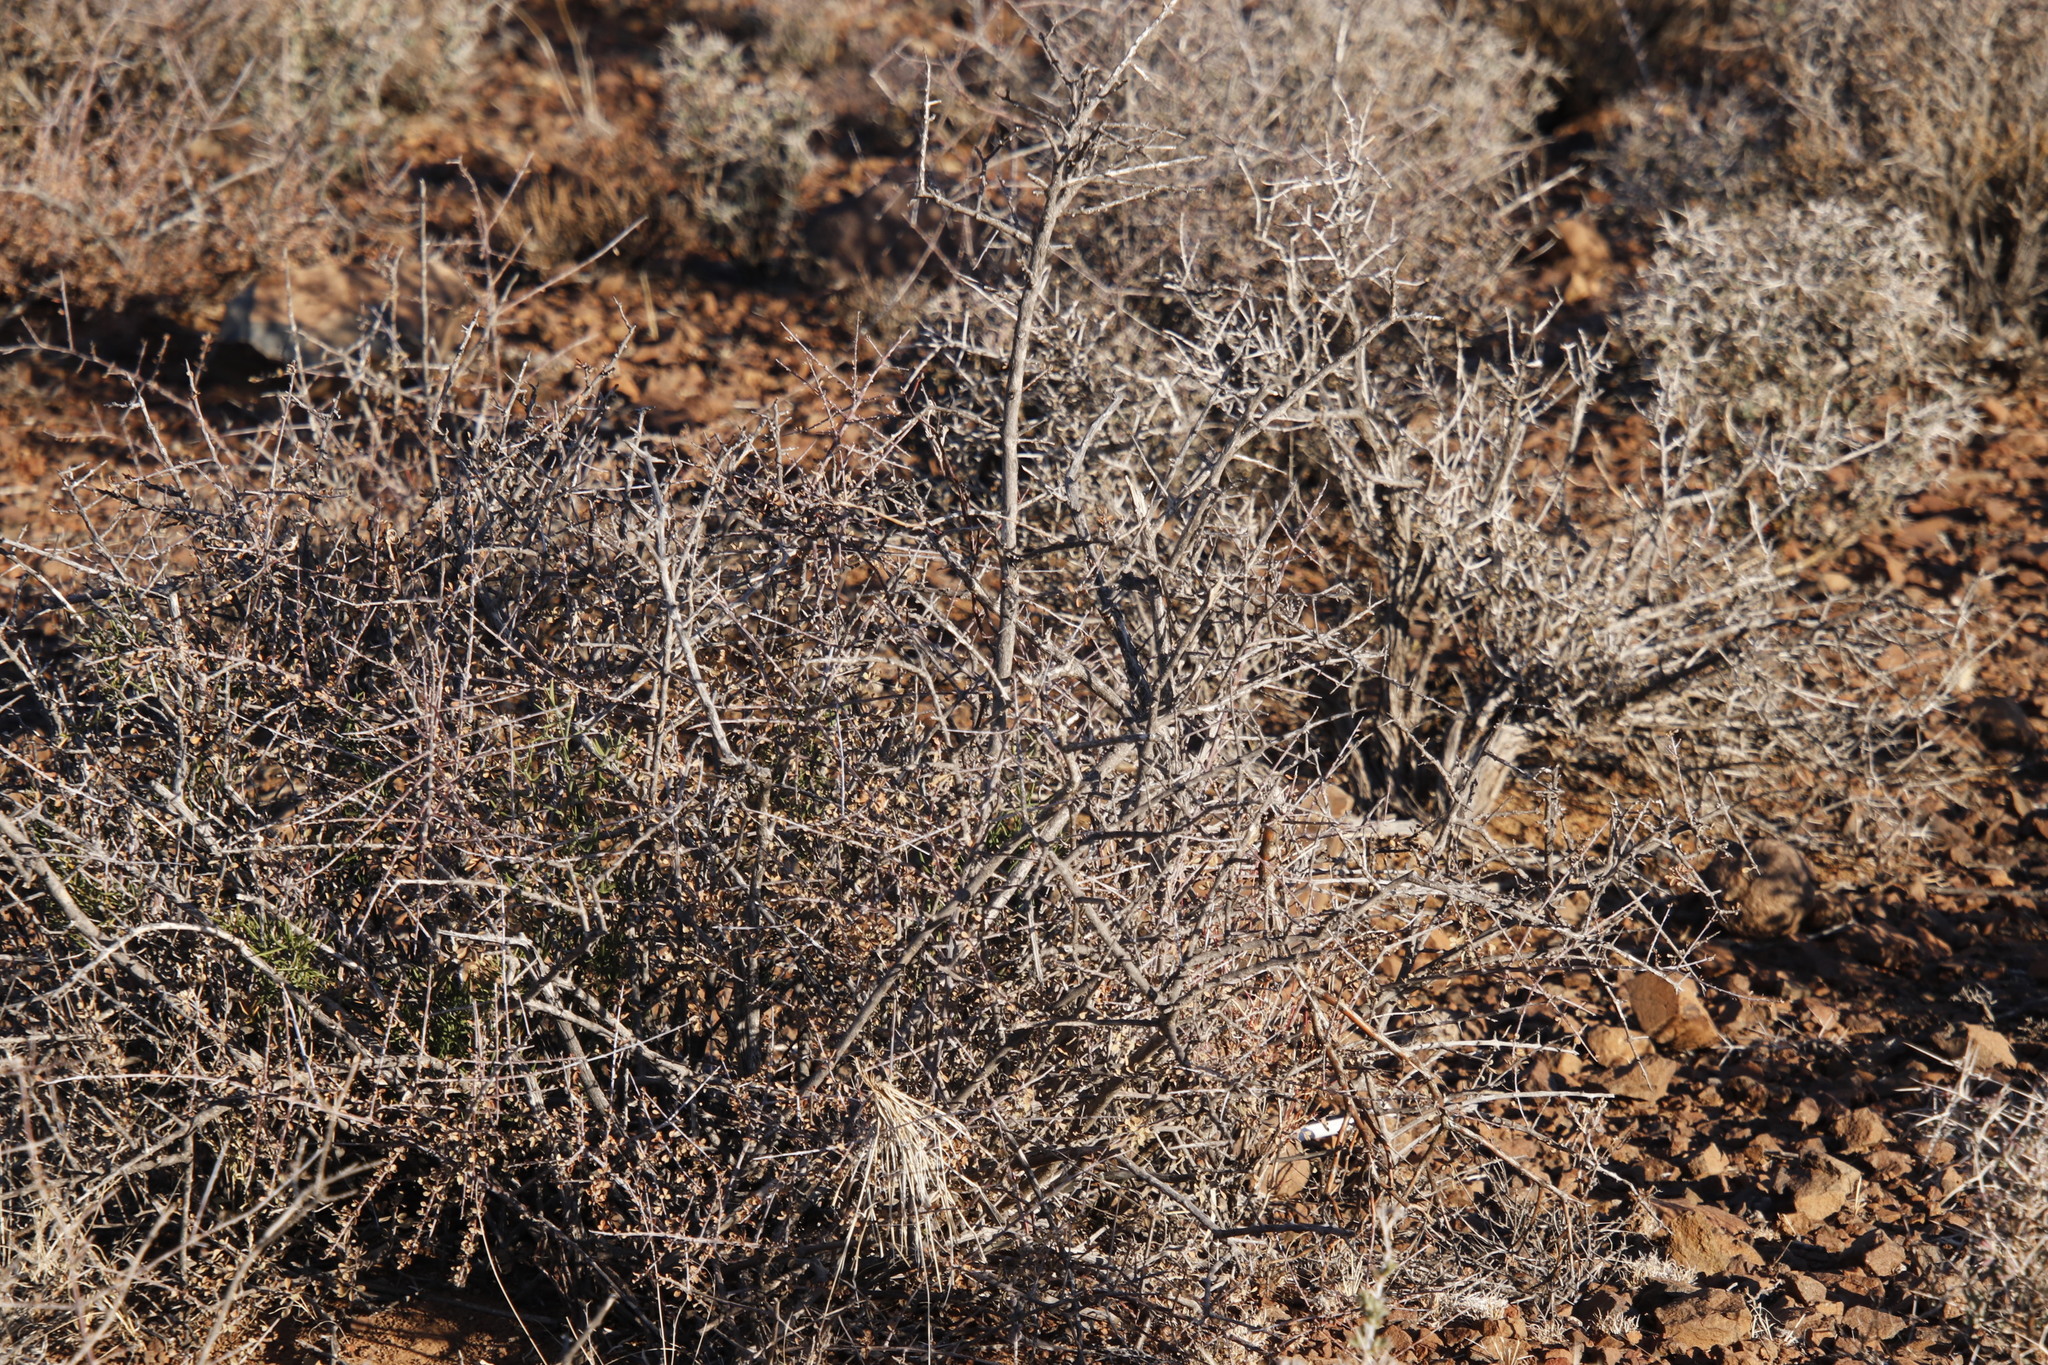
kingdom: Plantae
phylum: Tracheophyta
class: Magnoliopsida
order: Lamiales
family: Bignoniaceae
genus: Rhigozum
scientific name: Rhigozum obovatum
